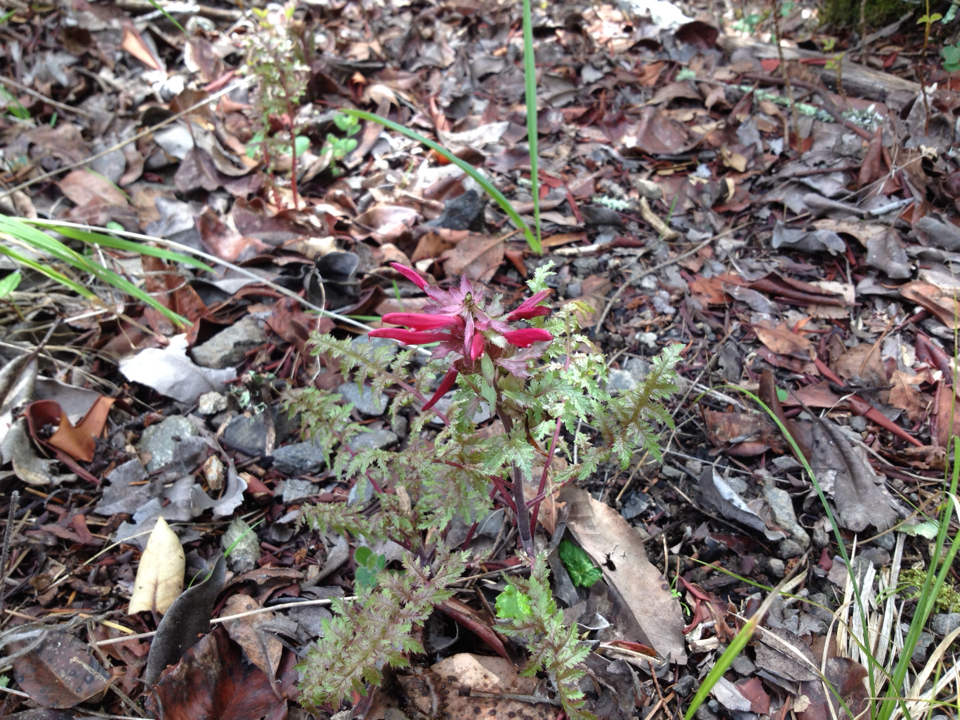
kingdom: Plantae
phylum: Tracheophyta
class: Magnoliopsida
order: Lamiales
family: Orobanchaceae
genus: Pedicularis
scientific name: Pedicularis densiflora
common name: Indian warrior
